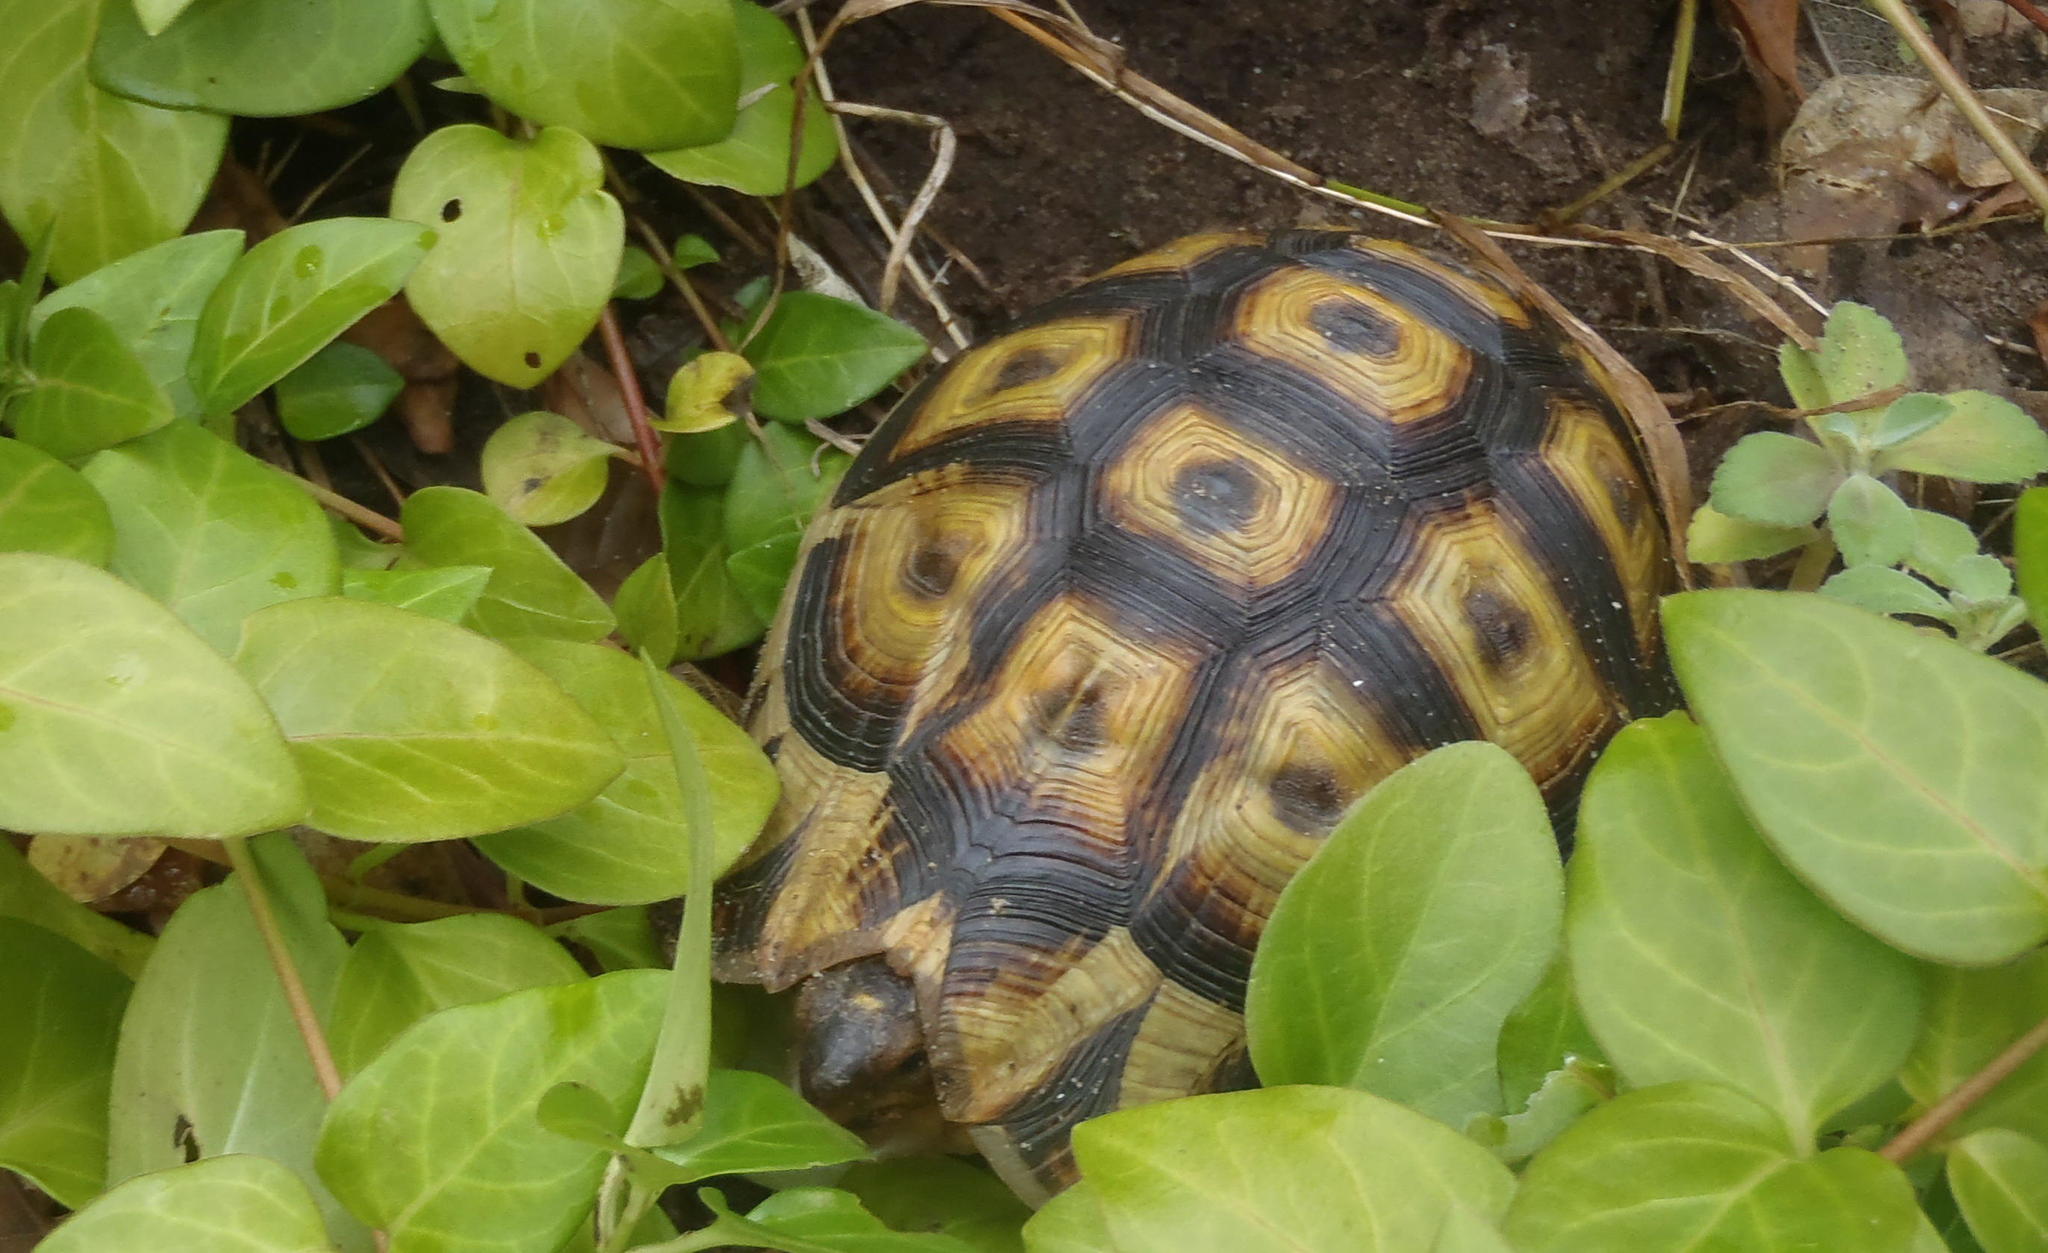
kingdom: Animalia
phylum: Chordata
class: Testudines
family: Testudinidae
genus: Chersina
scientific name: Chersina angulata
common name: South african bowsprit tortoise
